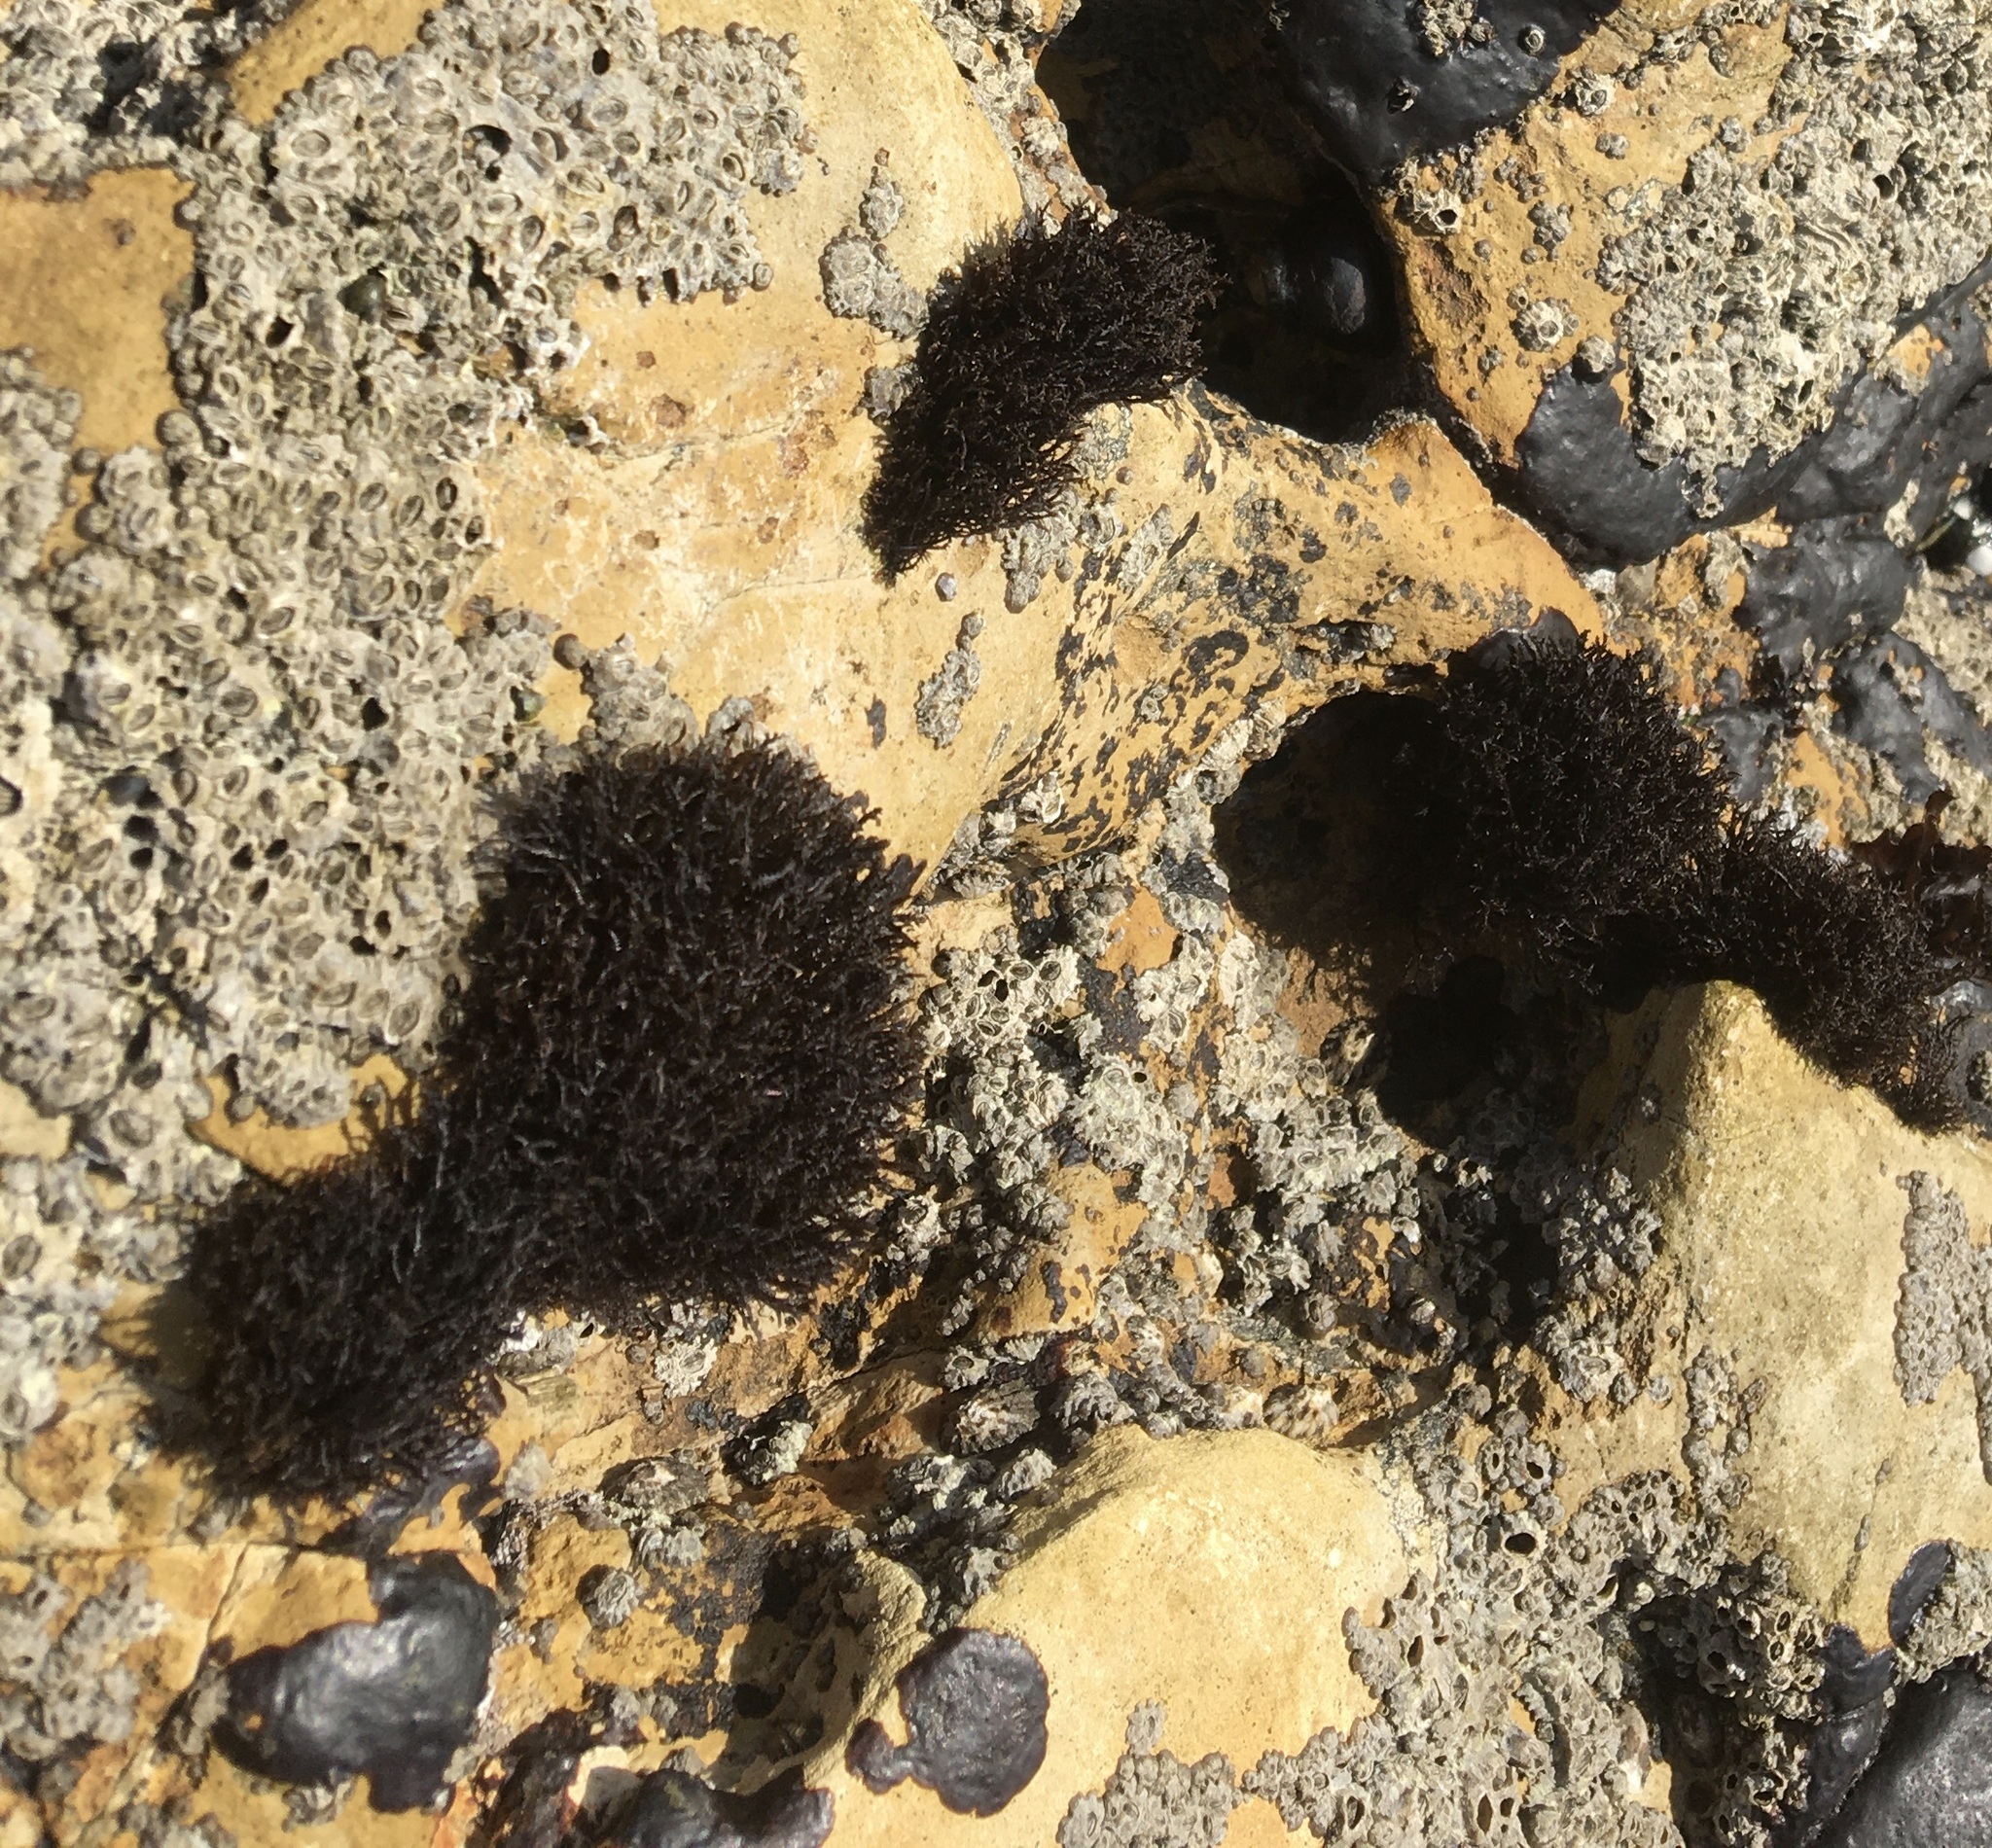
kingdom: Plantae
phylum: Rhodophyta
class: Florideophyceae
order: Gigartinales
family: Endocladiaceae
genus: Endocladia
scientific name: Endocladia muricata
